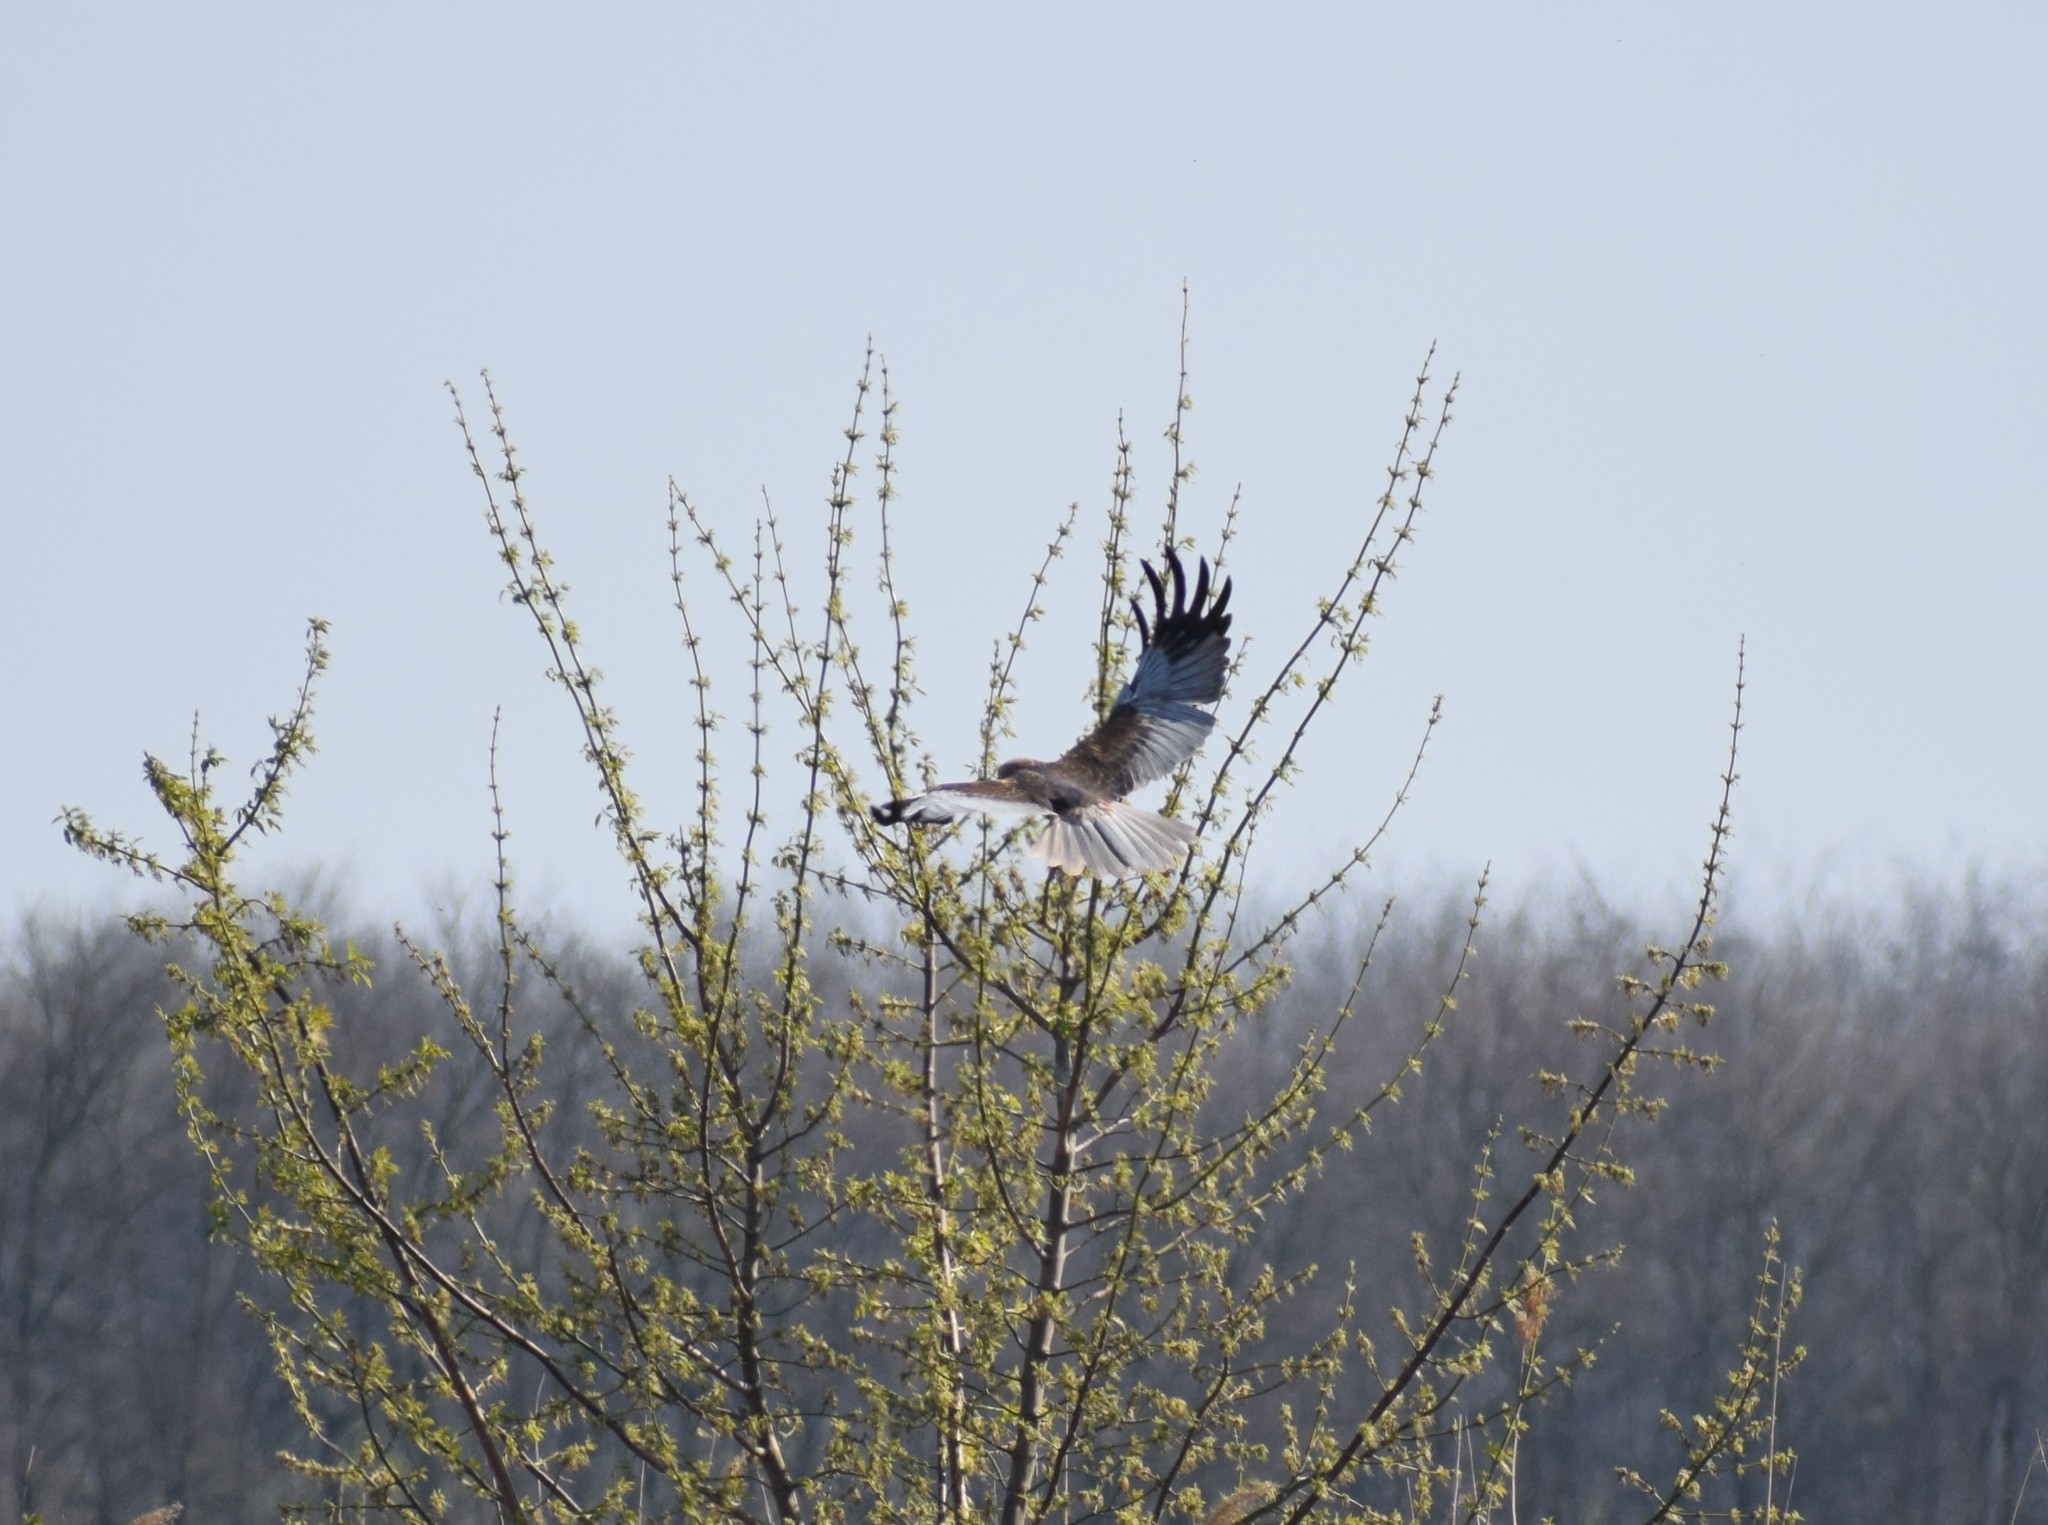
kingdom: Animalia
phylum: Chordata
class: Aves
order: Accipitriformes
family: Accipitridae
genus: Circus
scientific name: Circus aeruginosus
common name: Western marsh harrier
